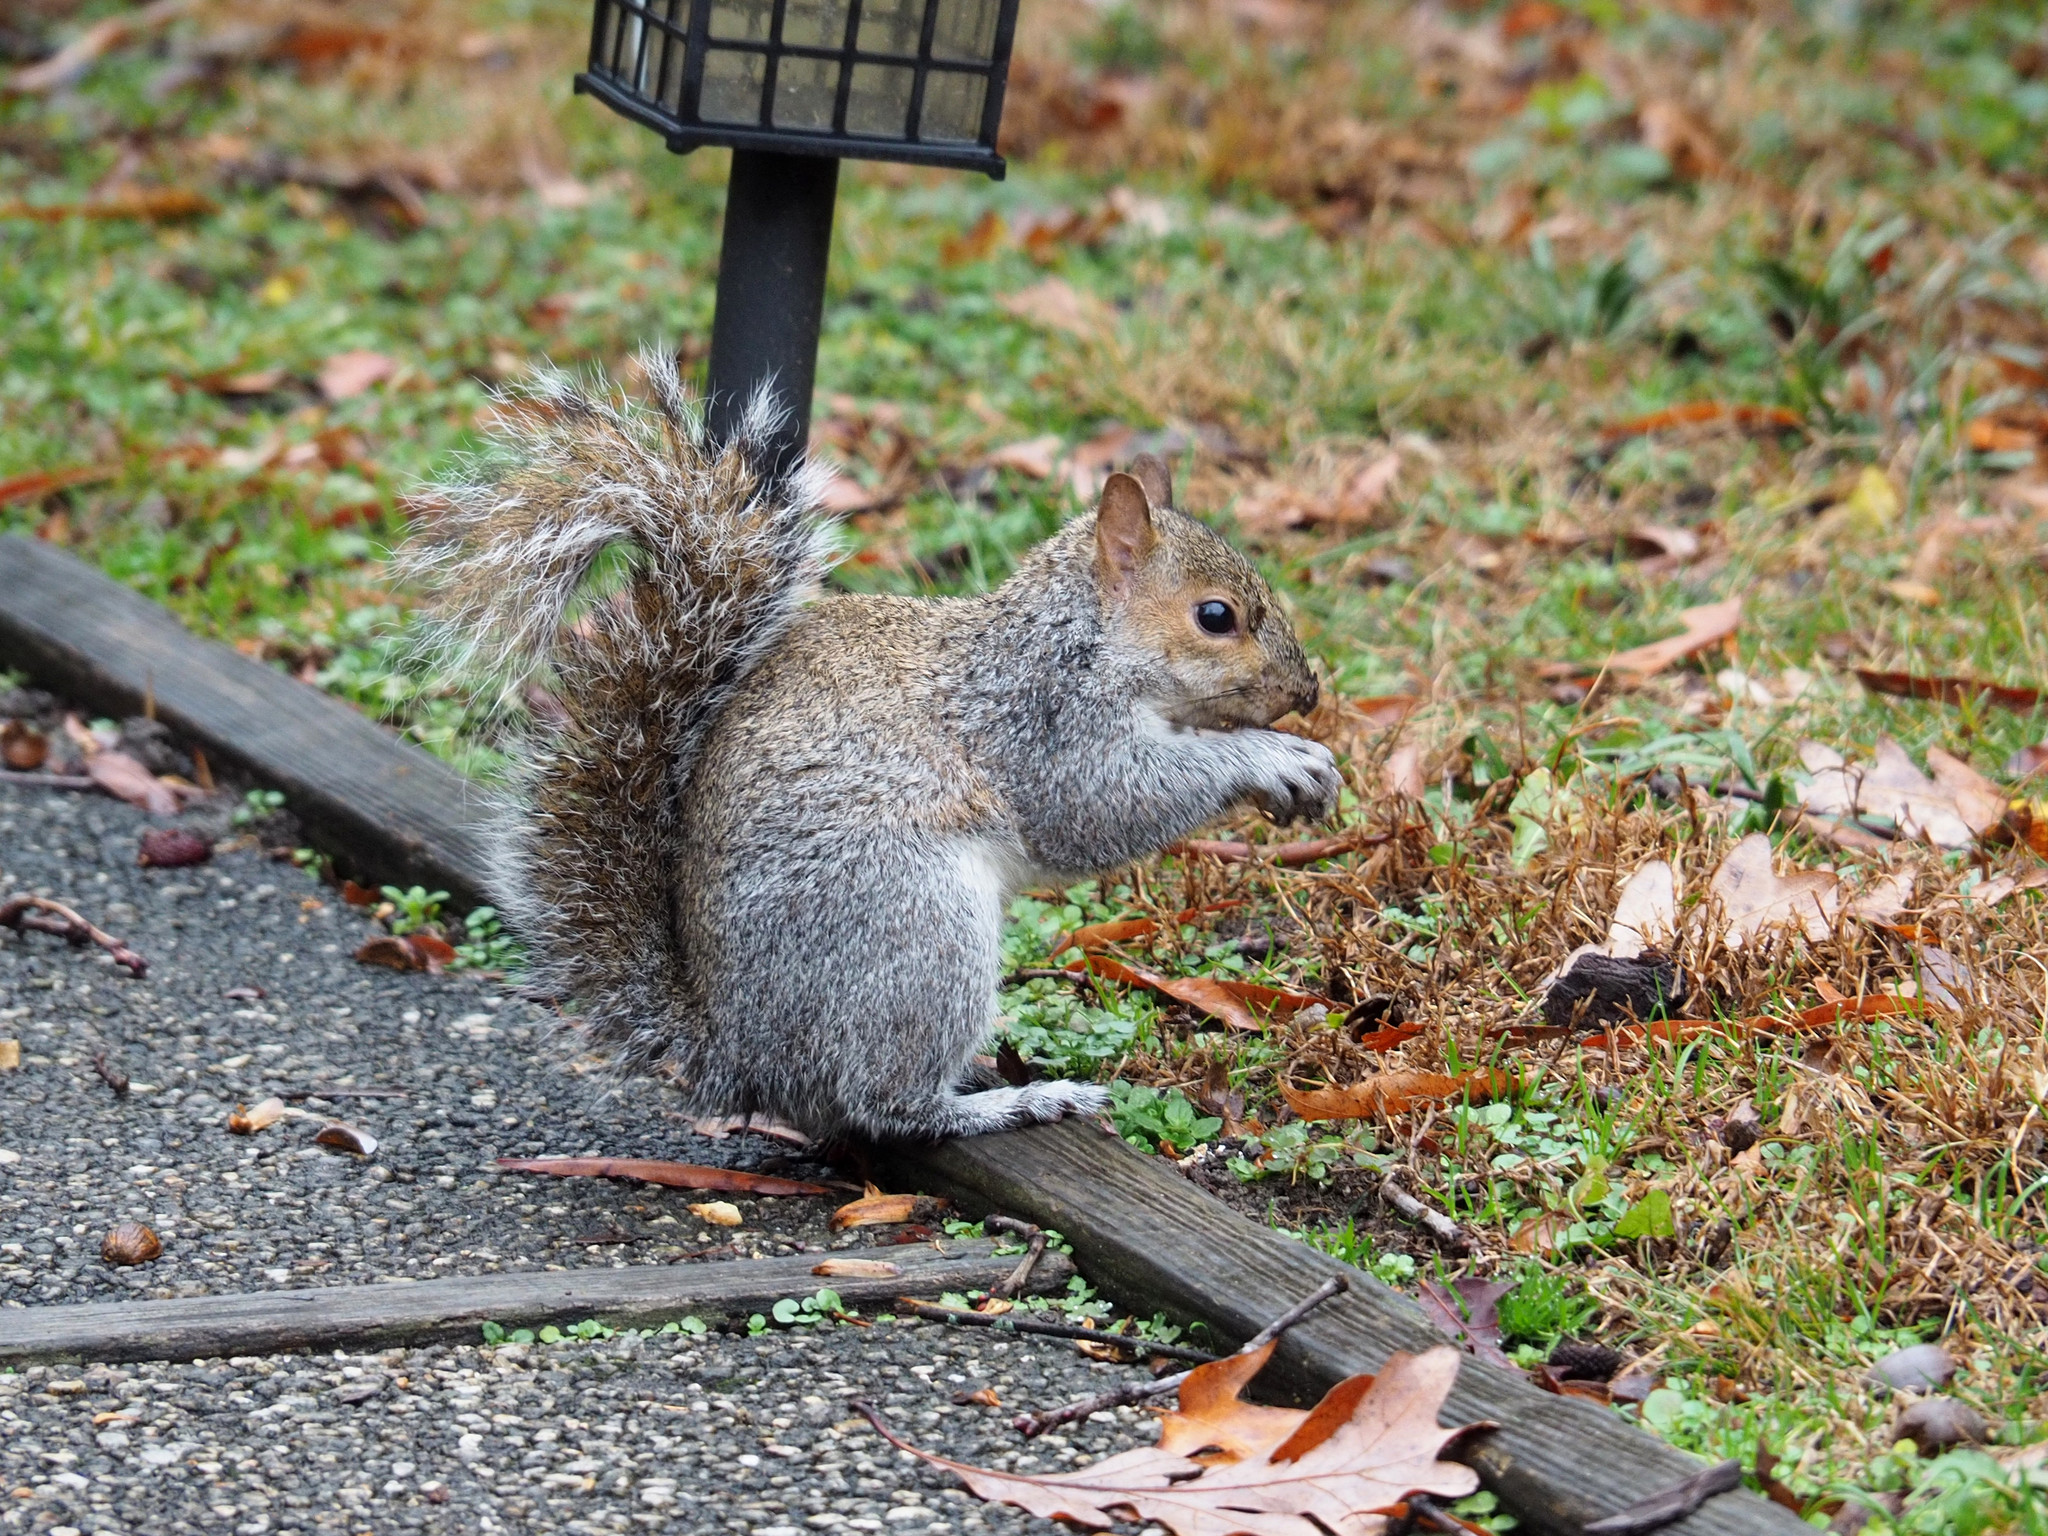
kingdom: Animalia
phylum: Chordata
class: Mammalia
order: Rodentia
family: Sciuridae
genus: Sciurus
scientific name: Sciurus carolinensis
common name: Eastern gray squirrel
